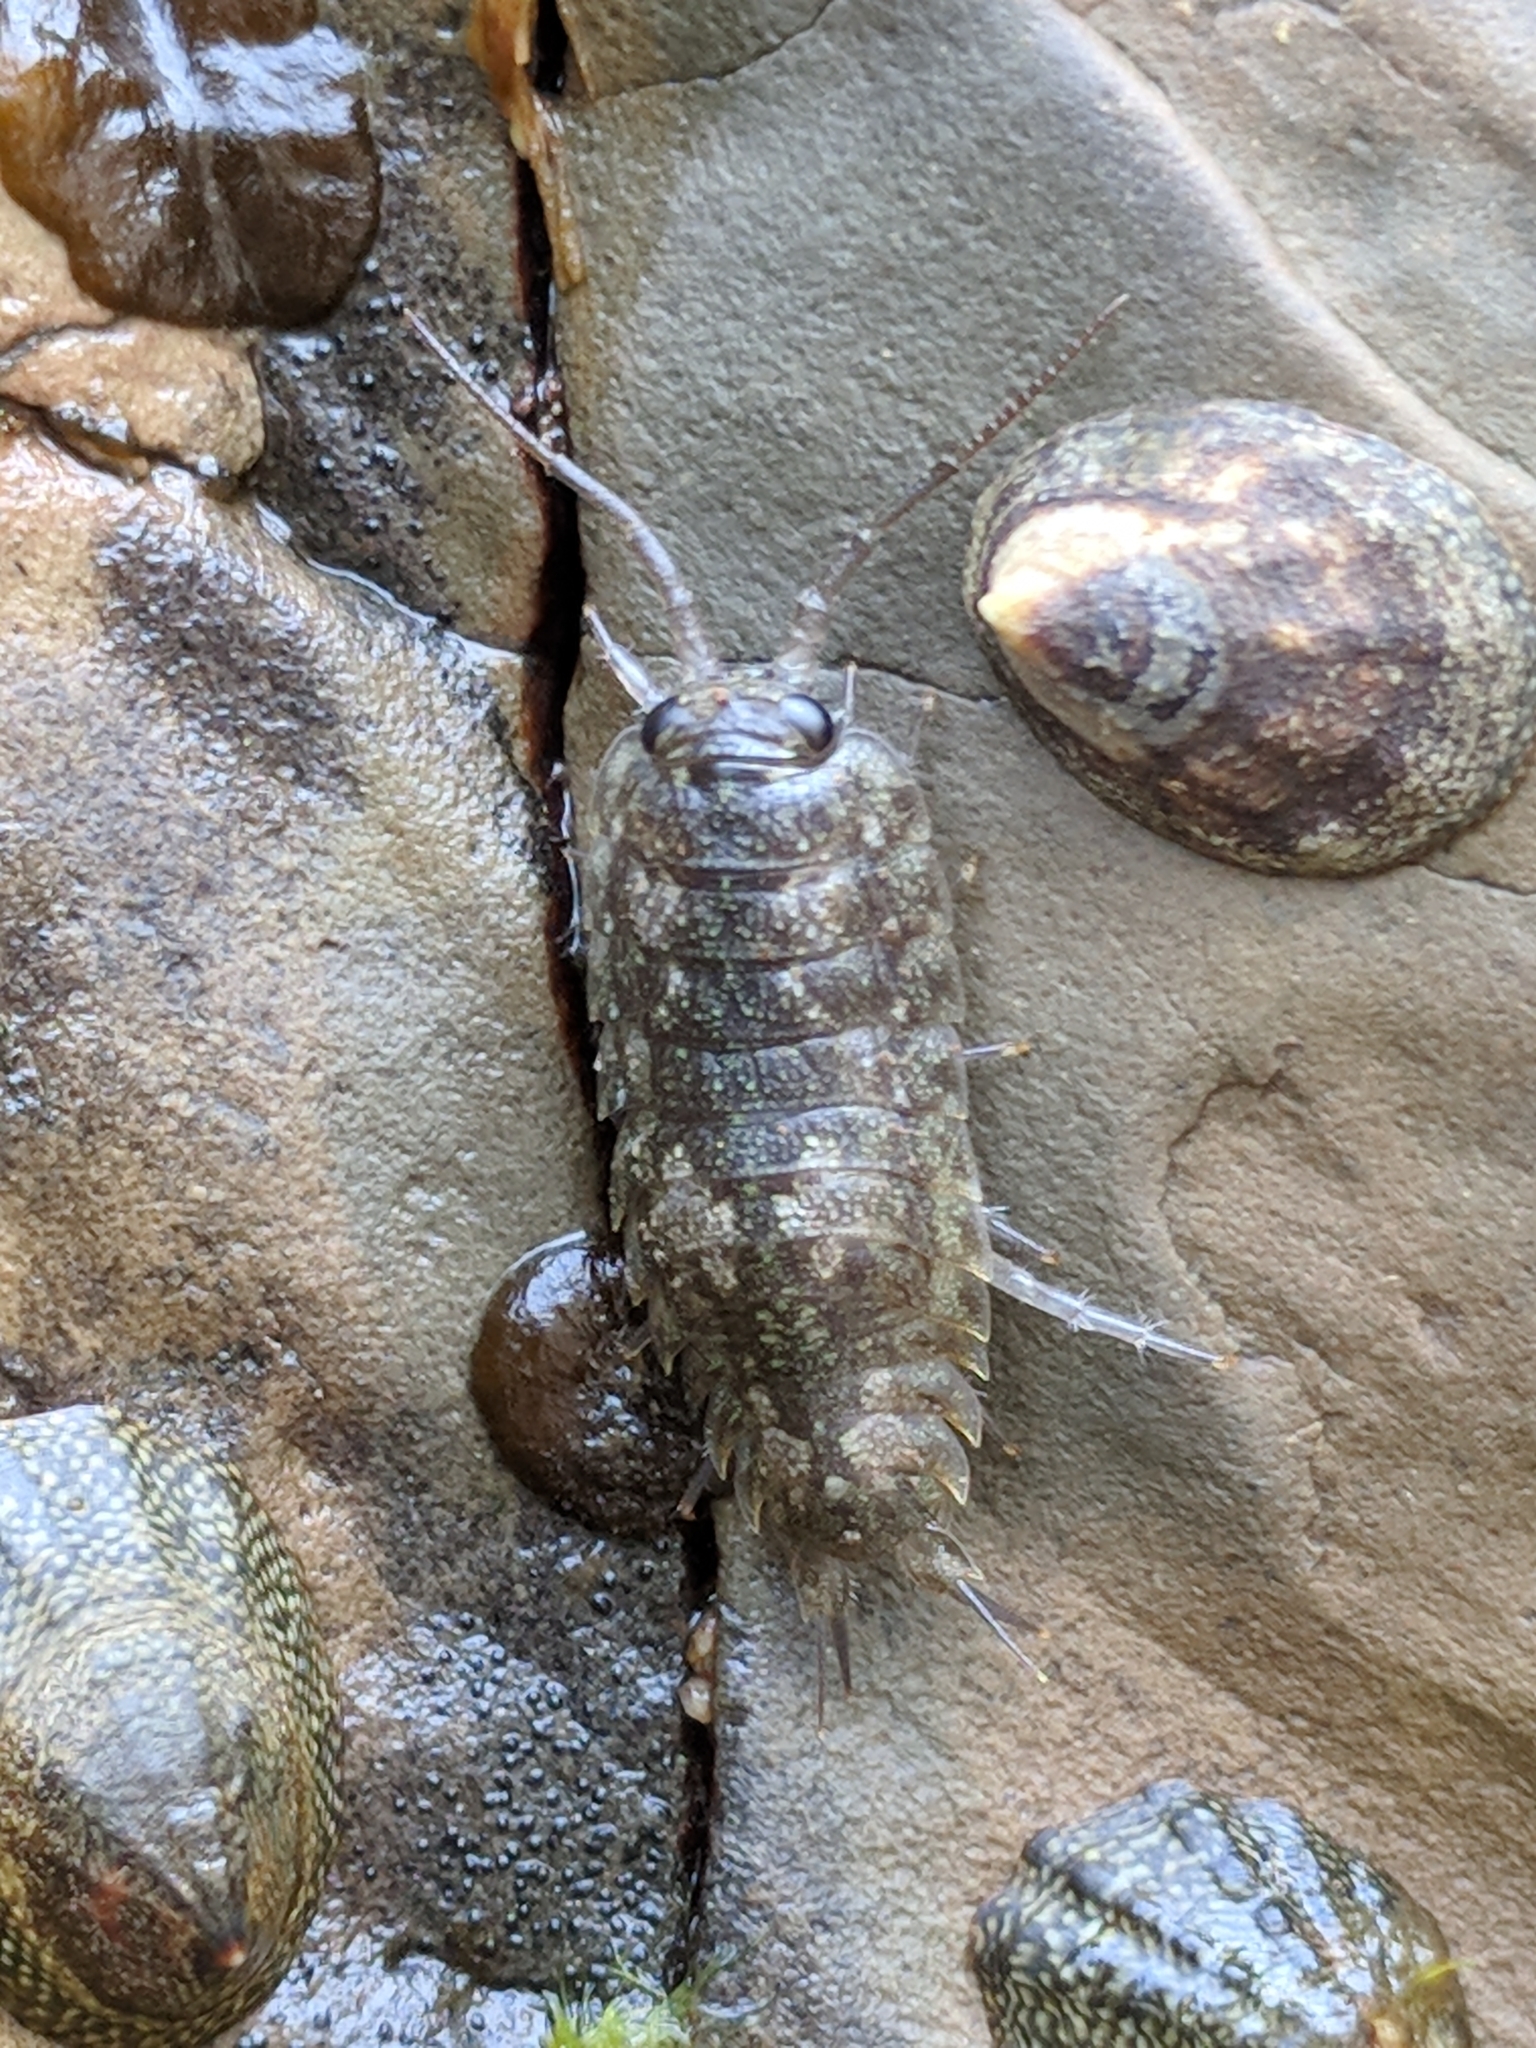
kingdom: Animalia
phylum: Arthropoda
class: Malacostraca
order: Isopoda
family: Ligiidae
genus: Ligia
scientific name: Ligia pallasii
